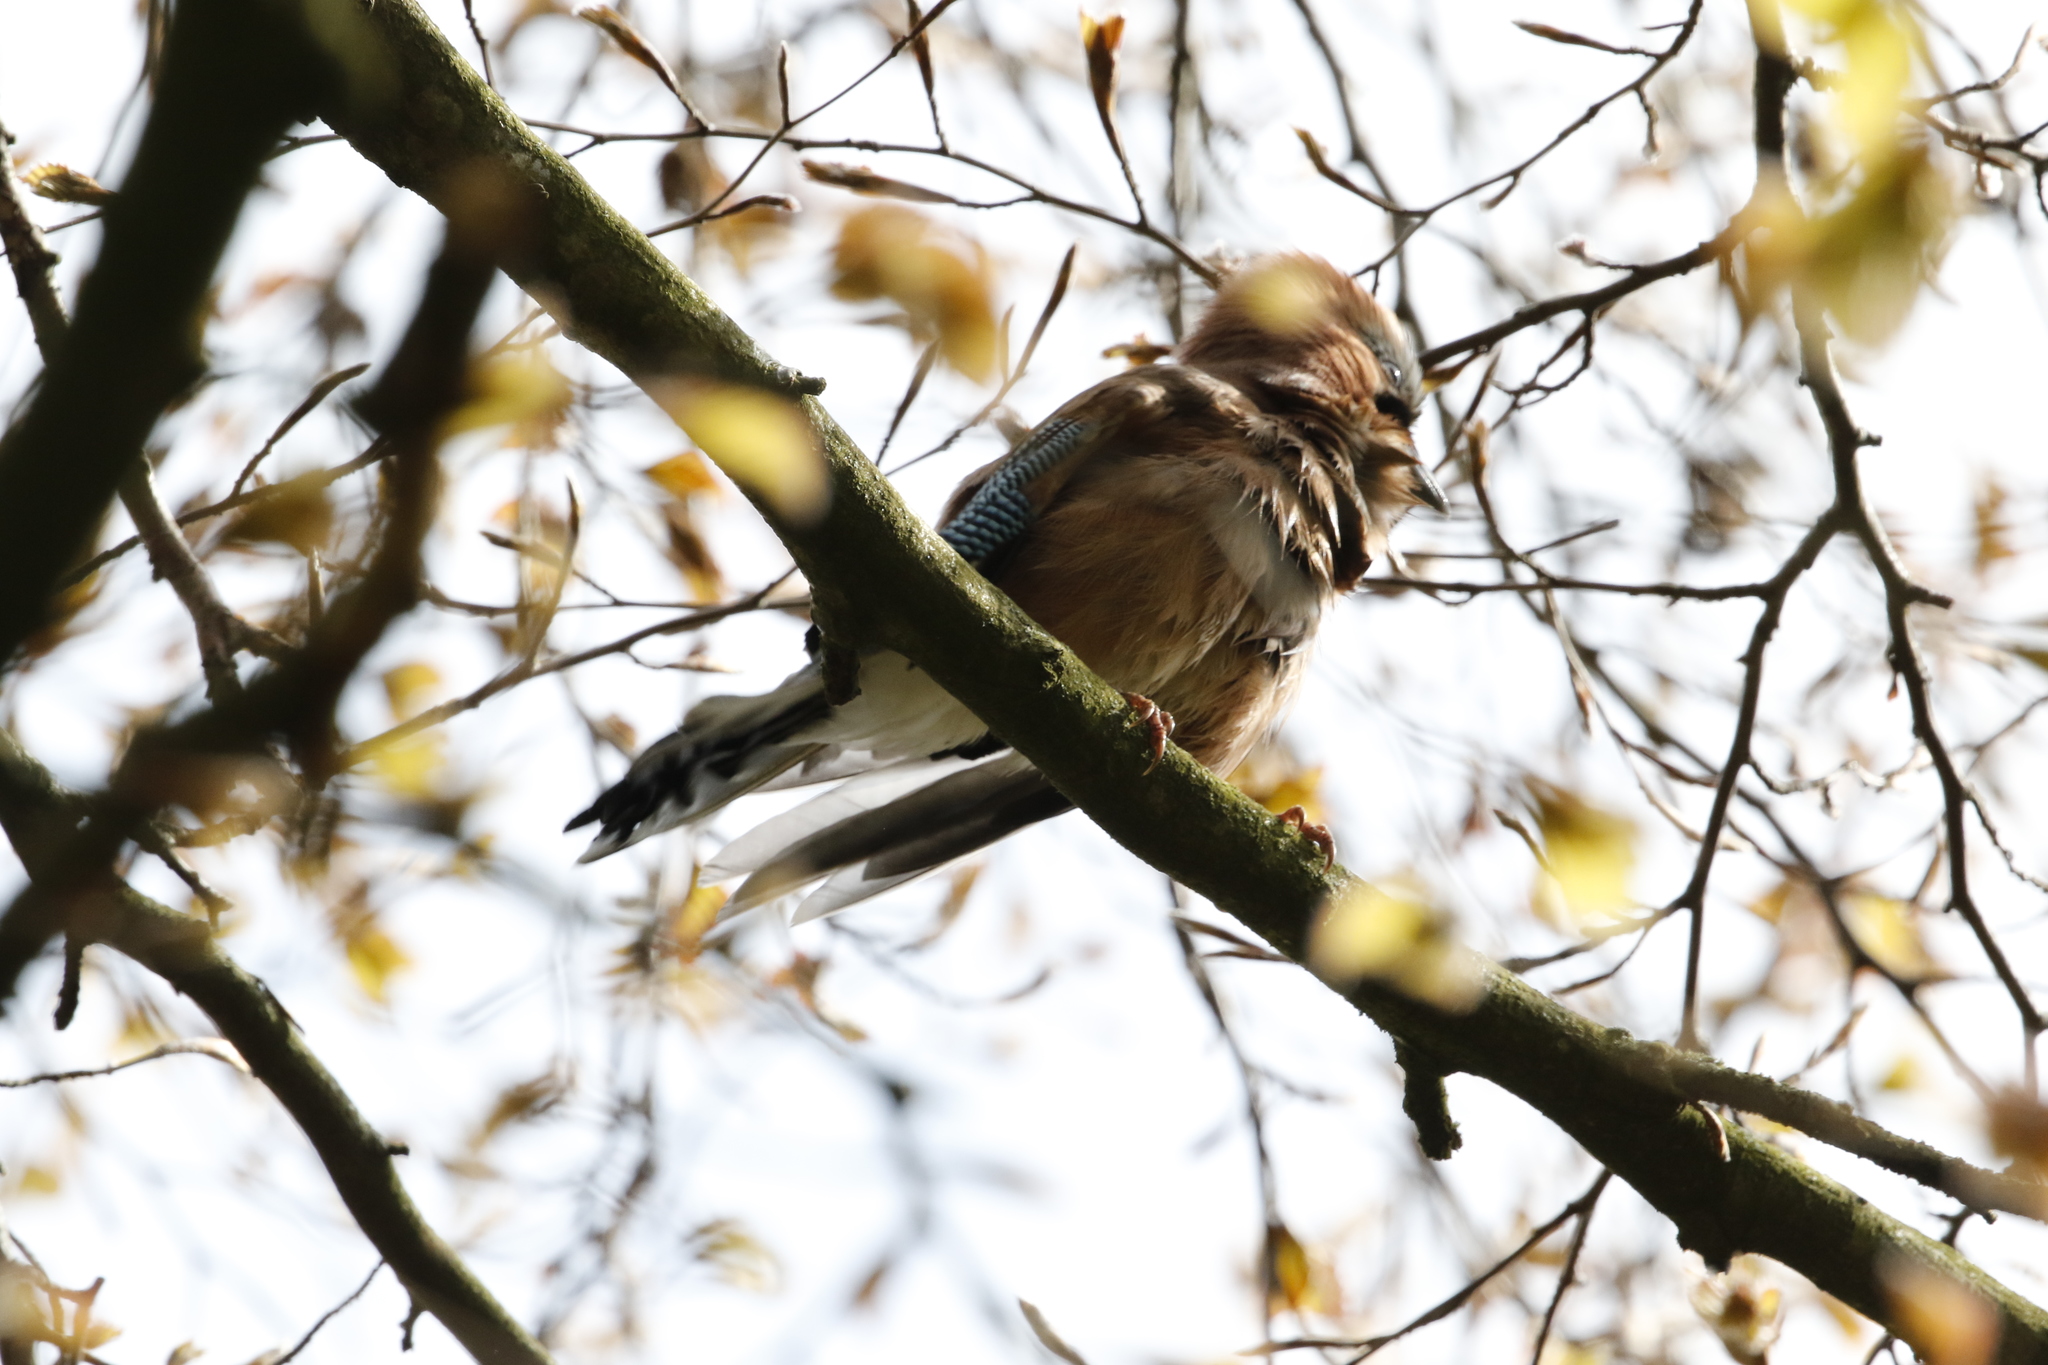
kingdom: Animalia
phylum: Chordata
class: Aves
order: Passeriformes
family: Corvidae
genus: Garrulus
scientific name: Garrulus glandarius
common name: Eurasian jay
